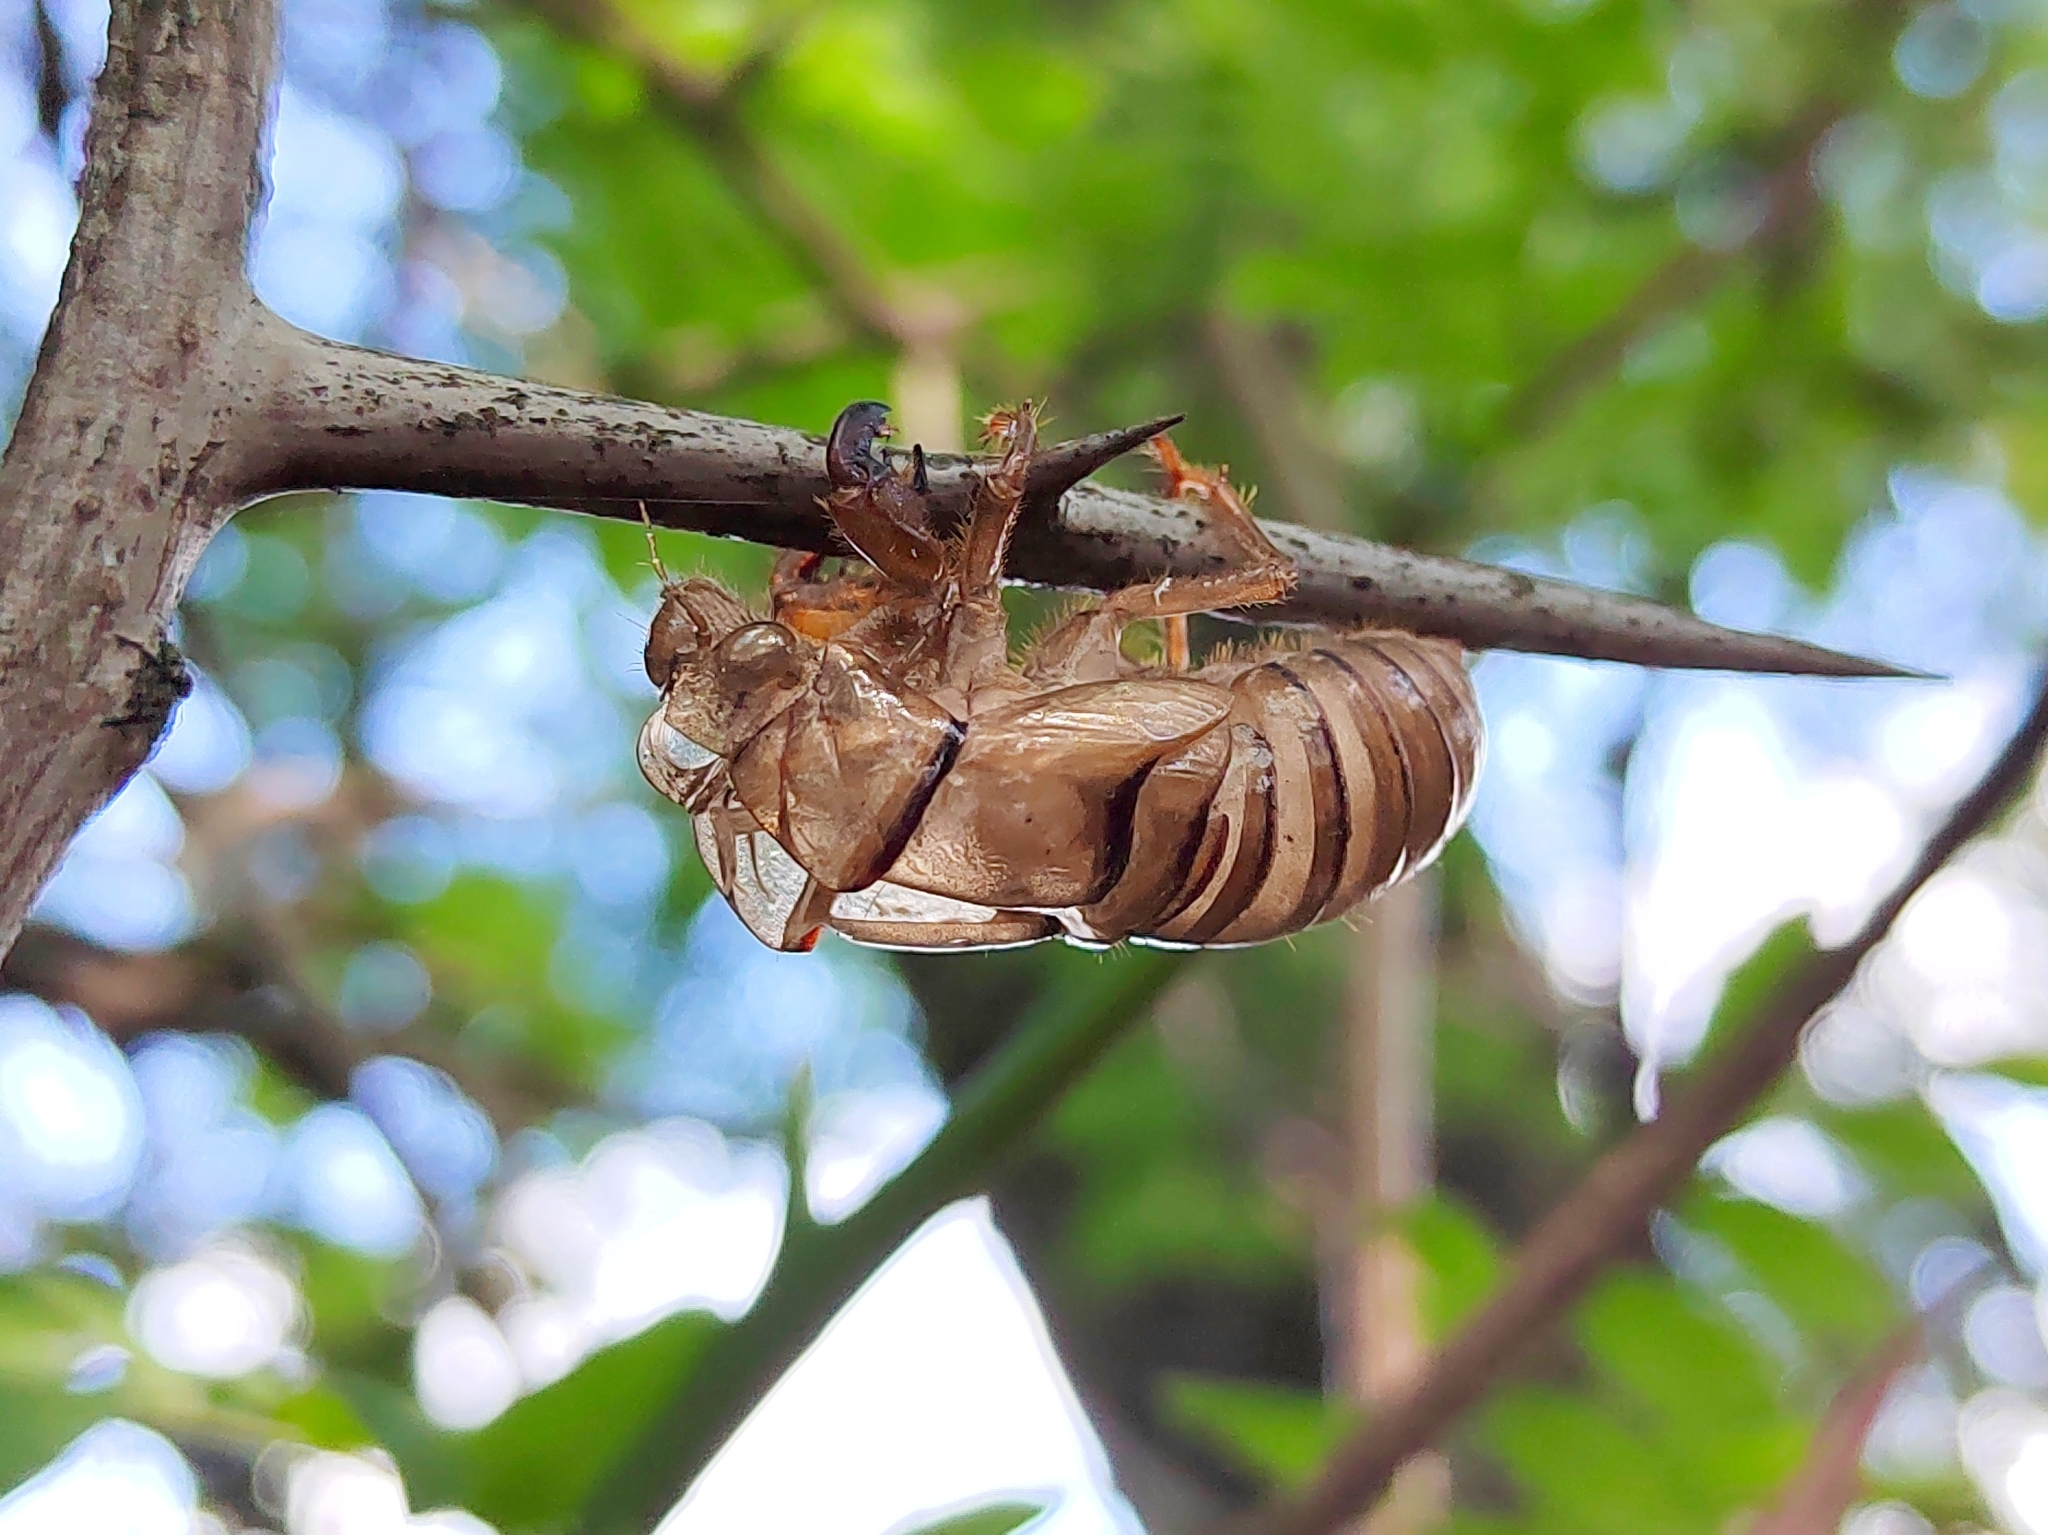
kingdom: Animalia
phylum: Arthropoda
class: Insecta
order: Hemiptera
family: Cicadidae
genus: Tibicina
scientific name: Tibicina steveni
